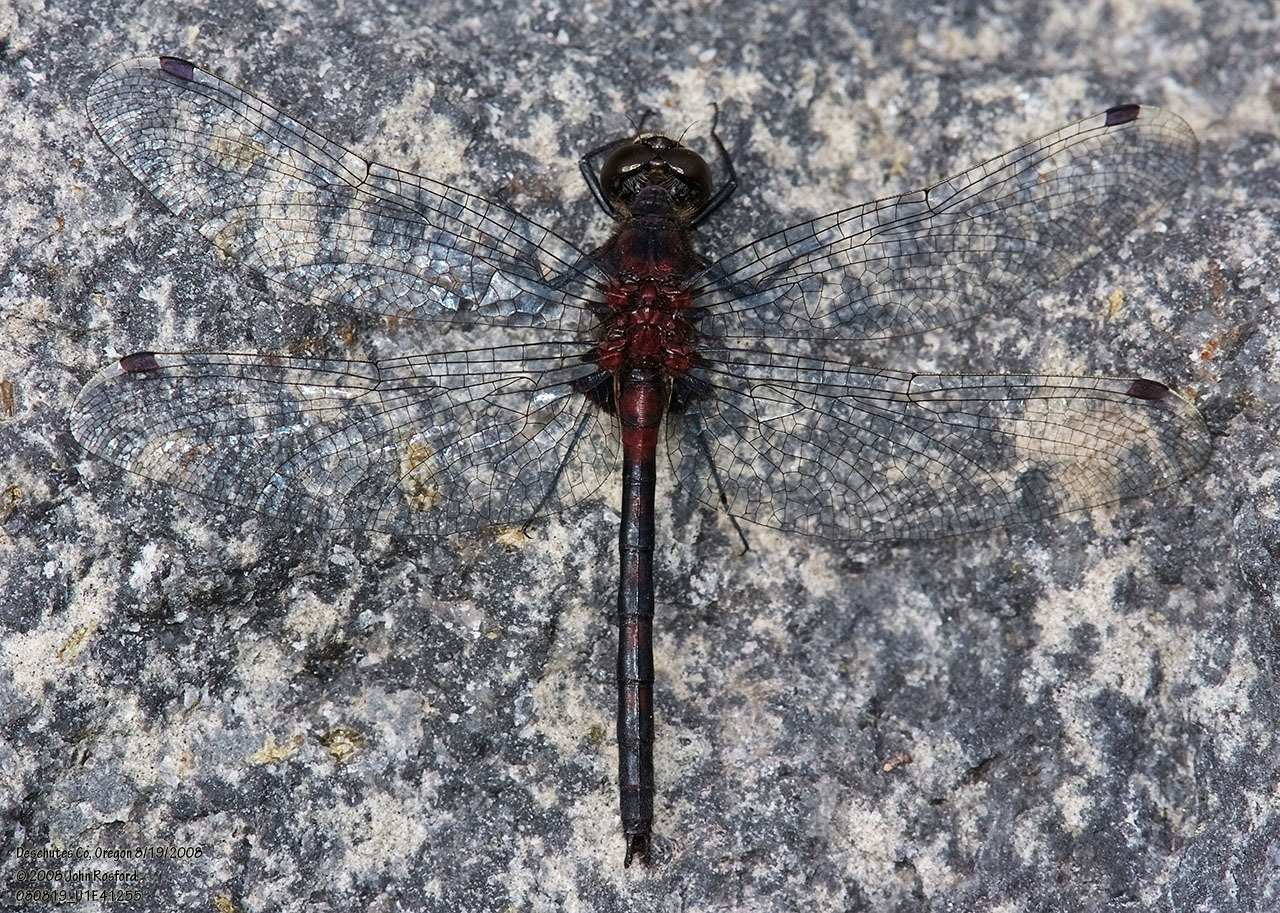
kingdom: Animalia
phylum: Arthropoda
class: Insecta
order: Odonata
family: Libellulidae
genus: Leucorrhinia
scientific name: Leucorrhinia hudsonica
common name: Hudsonian whiteface
